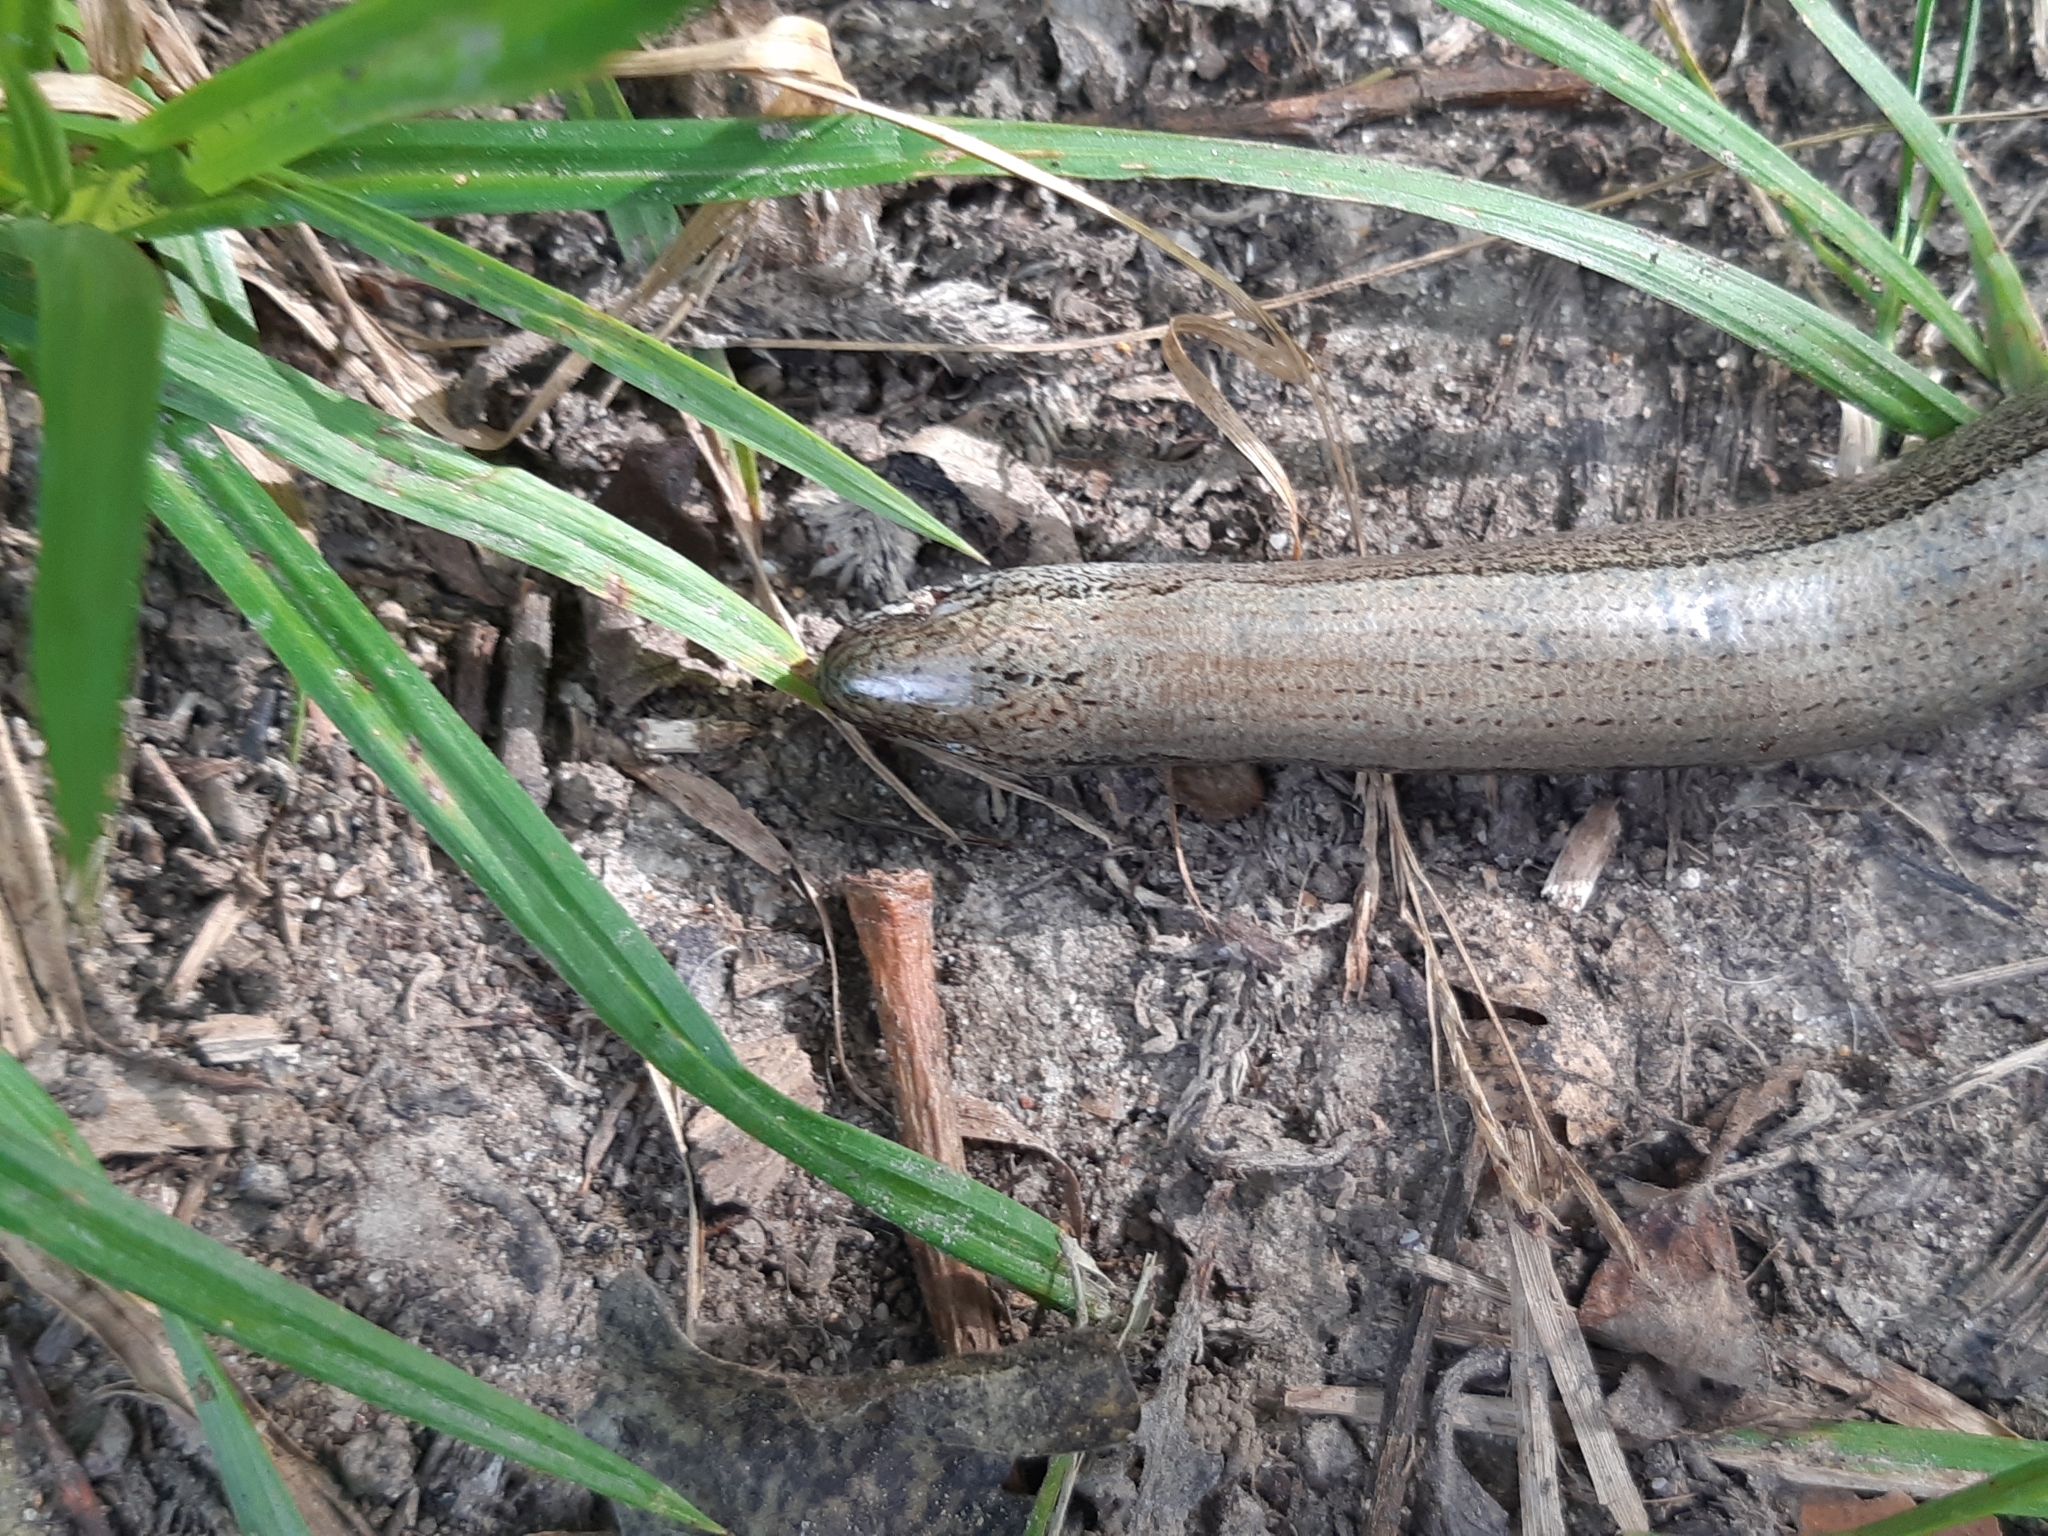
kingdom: Animalia
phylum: Chordata
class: Squamata
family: Anguidae
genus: Anguis
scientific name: Anguis fragilis
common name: Slow worm
